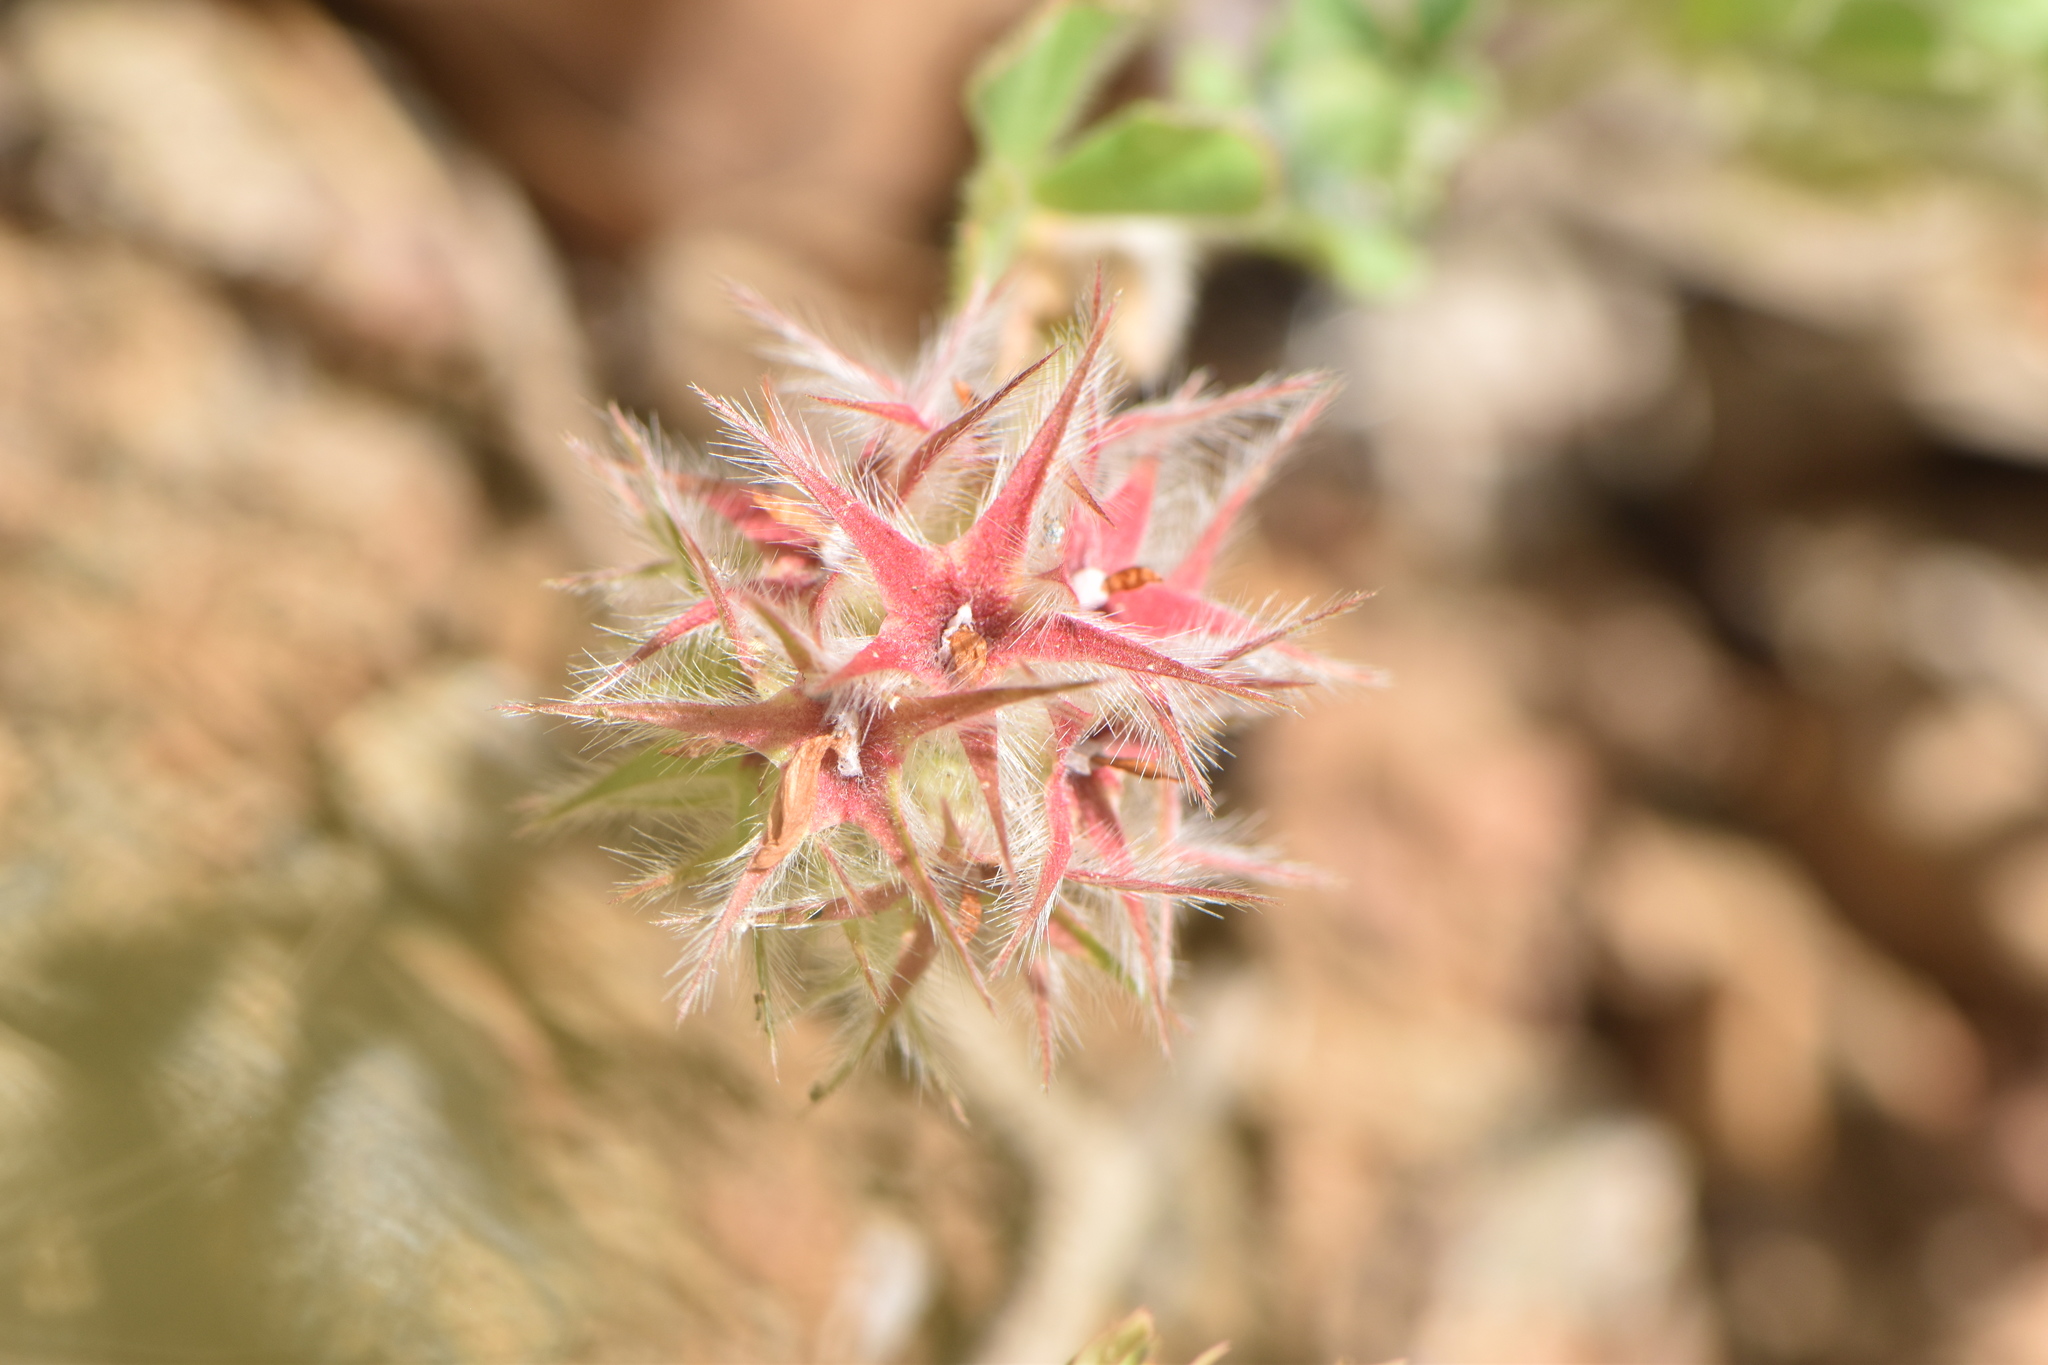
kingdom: Plantae
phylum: Tracheophyta
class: Magnoliopsida
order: Fabales
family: Fabaceae
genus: Trifolium
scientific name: Trifolium stellatum
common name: Starry clover
